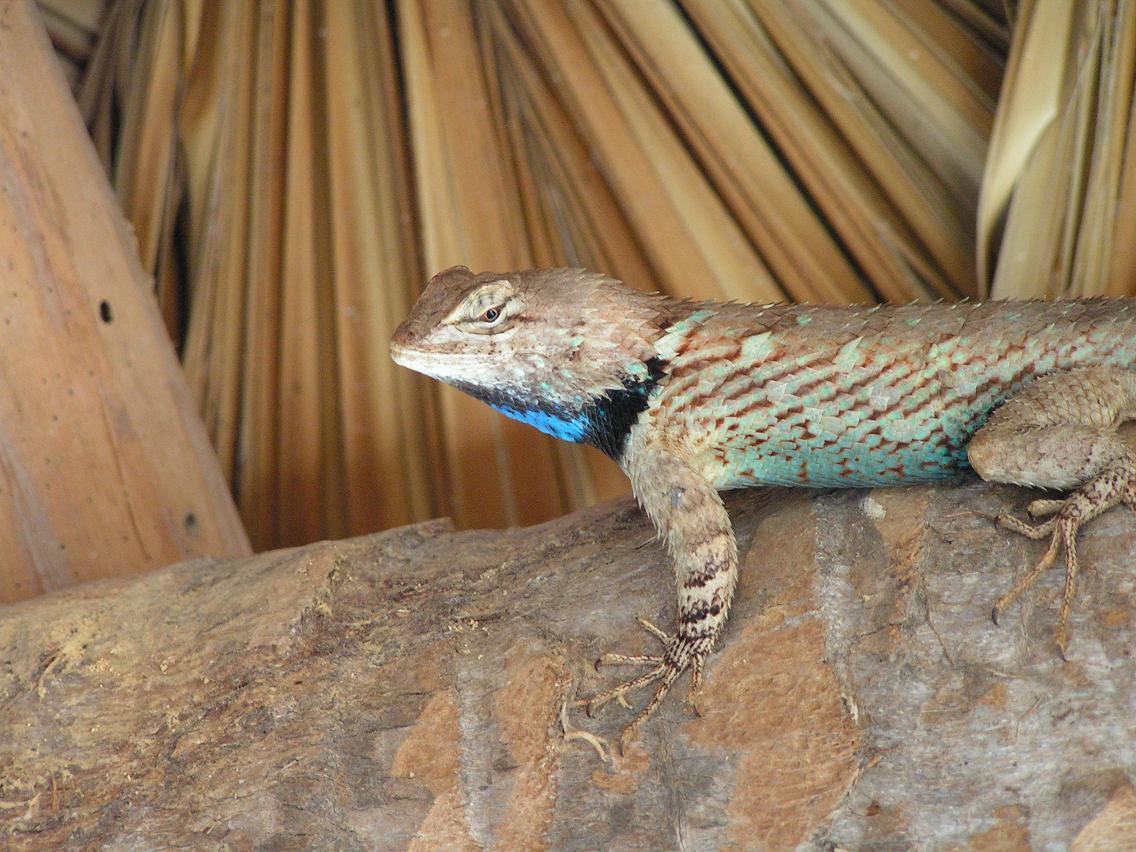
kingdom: Animalia
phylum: Chordata
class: Squamata
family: Phrynosomatidae
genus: Sceloporus
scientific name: Sceloporus clarkii
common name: Clark's spiny lizard
